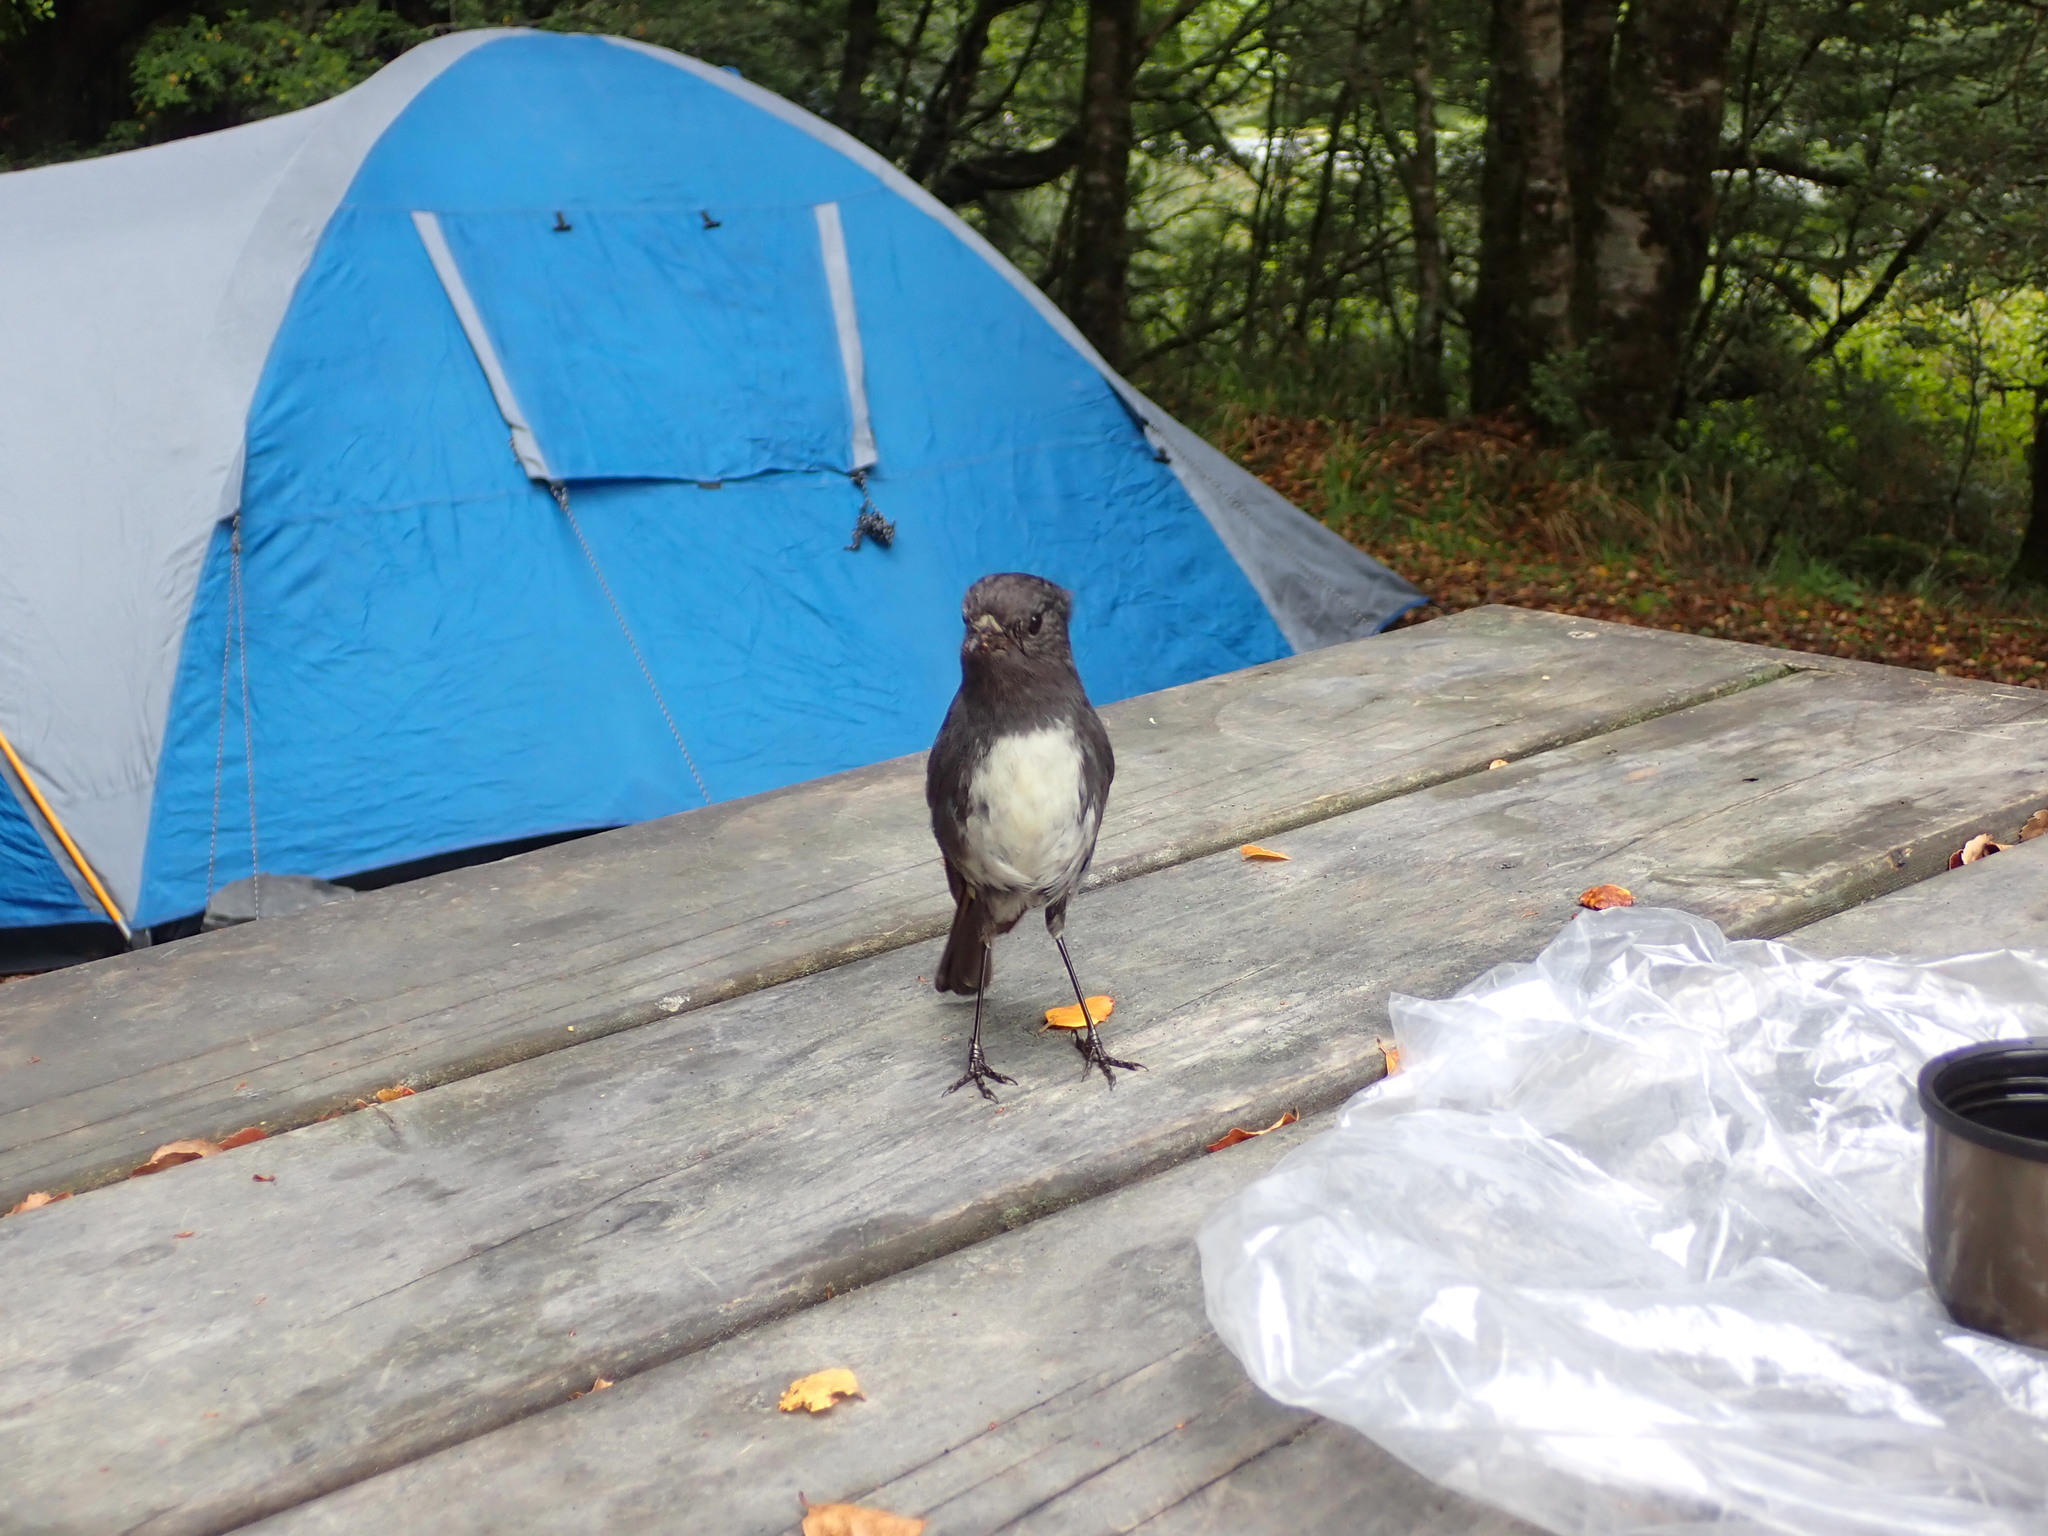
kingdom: Animalia
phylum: Chordata
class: Aves
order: Passeriformes
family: Petroicidae
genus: Petroica
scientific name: Petroica australis
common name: New zealand robin
